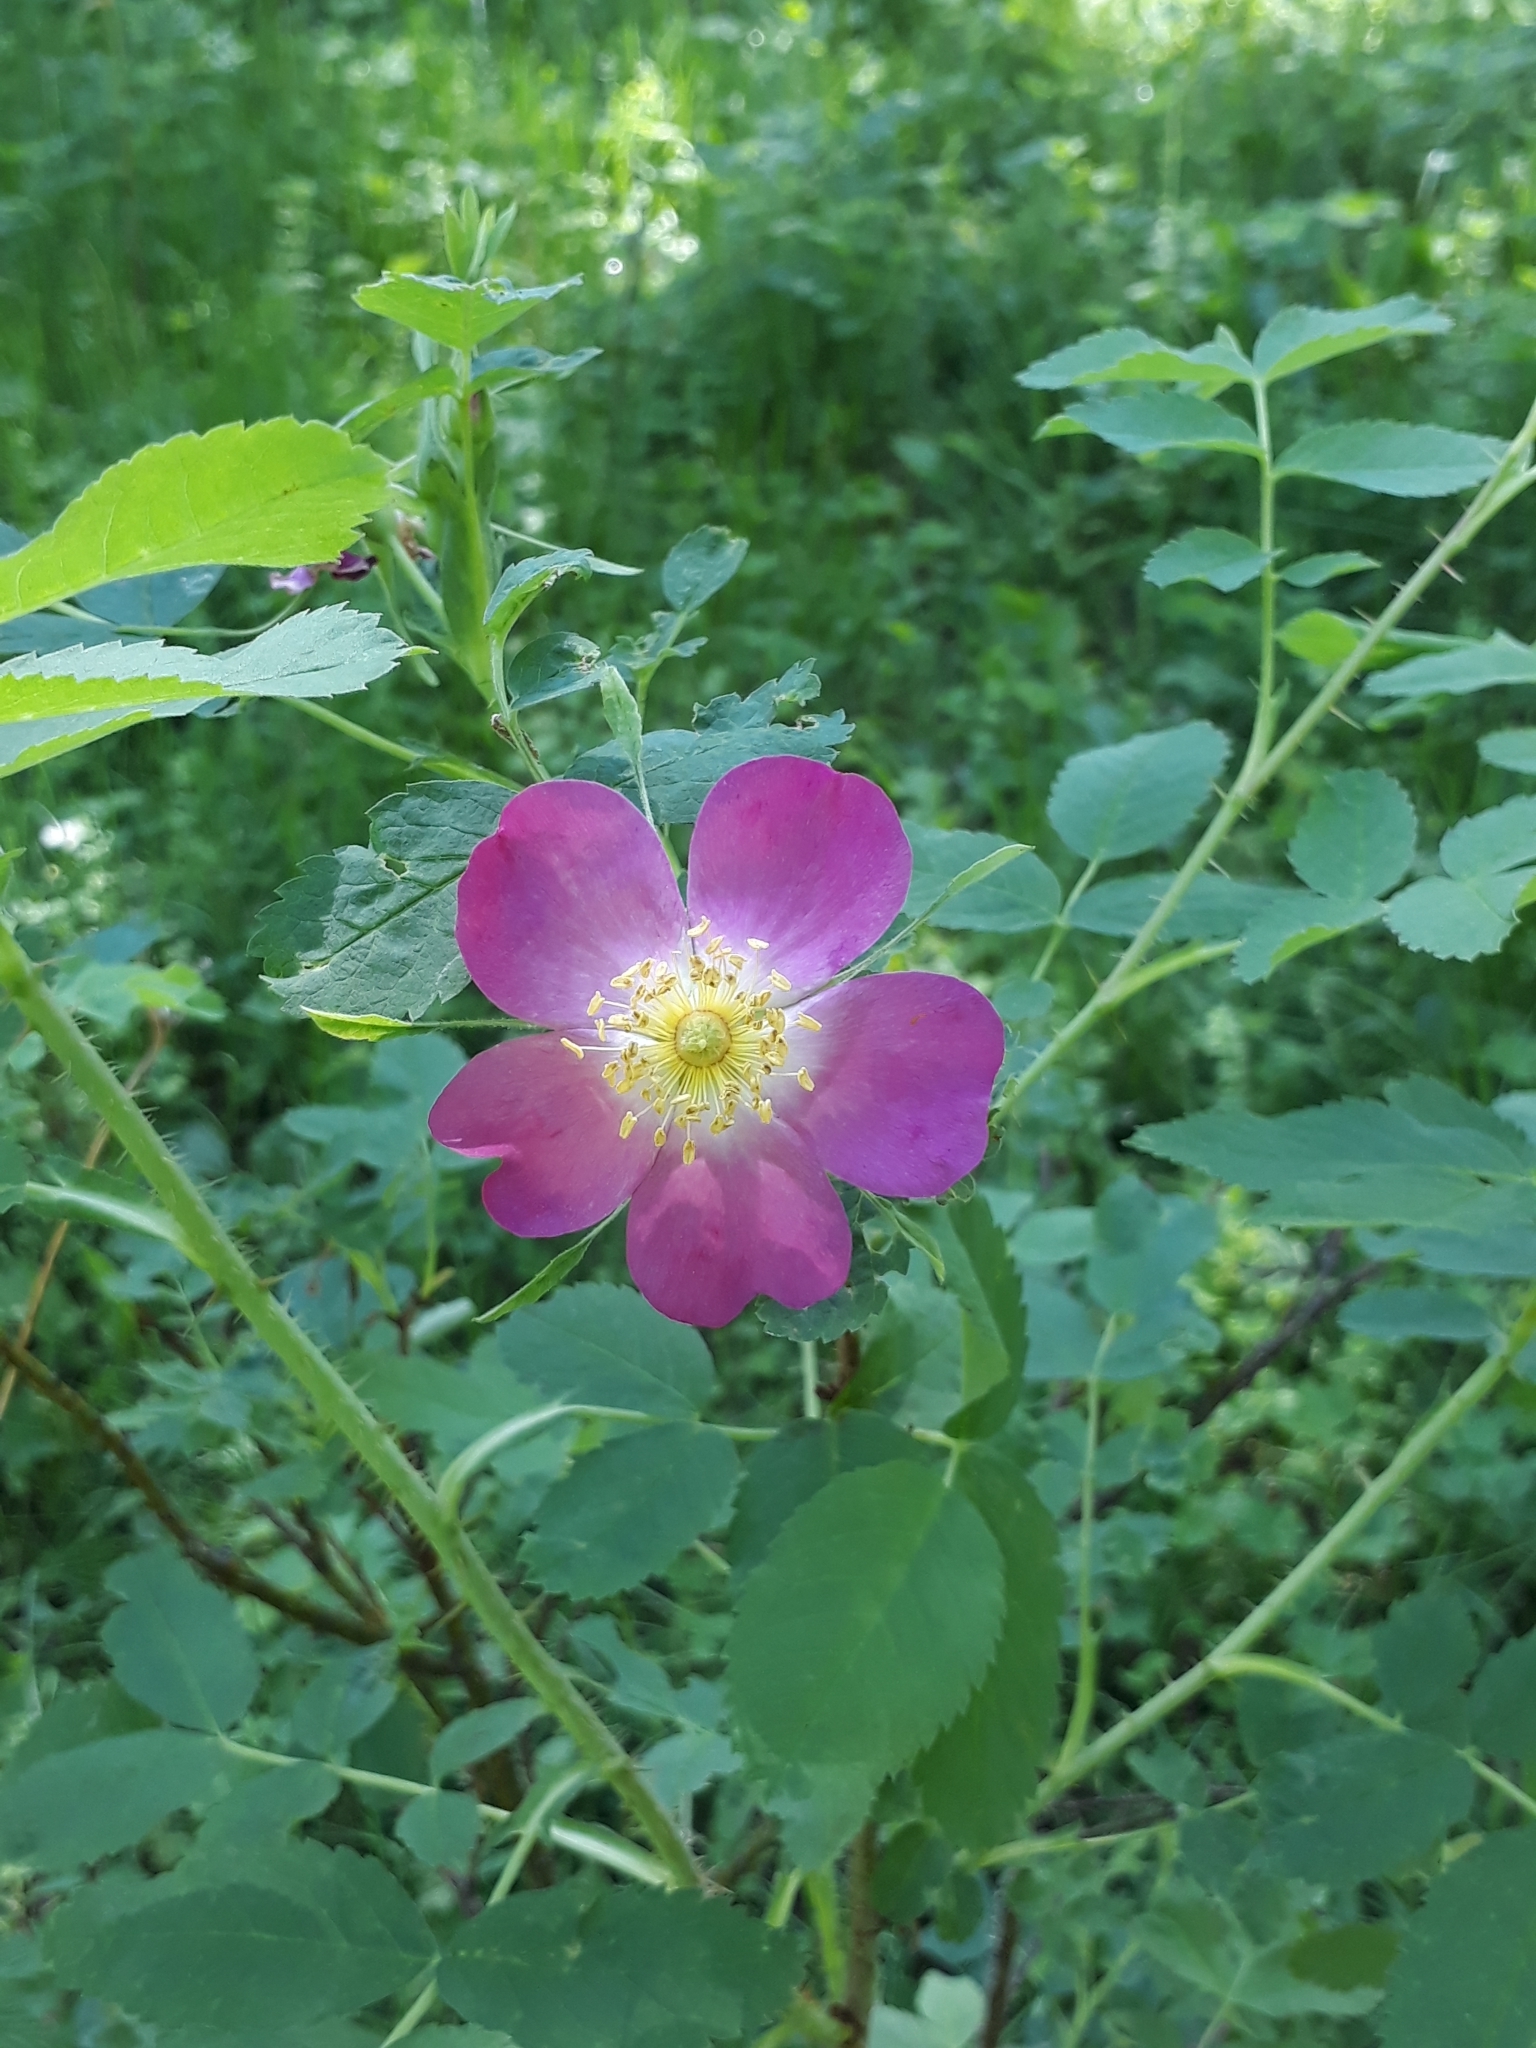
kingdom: Plantae
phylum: Tracheophyta
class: Magnoliopsida
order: Rosales
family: Rosaceae
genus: Rosa
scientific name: Rosa majalis
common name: Cinnamon rose
